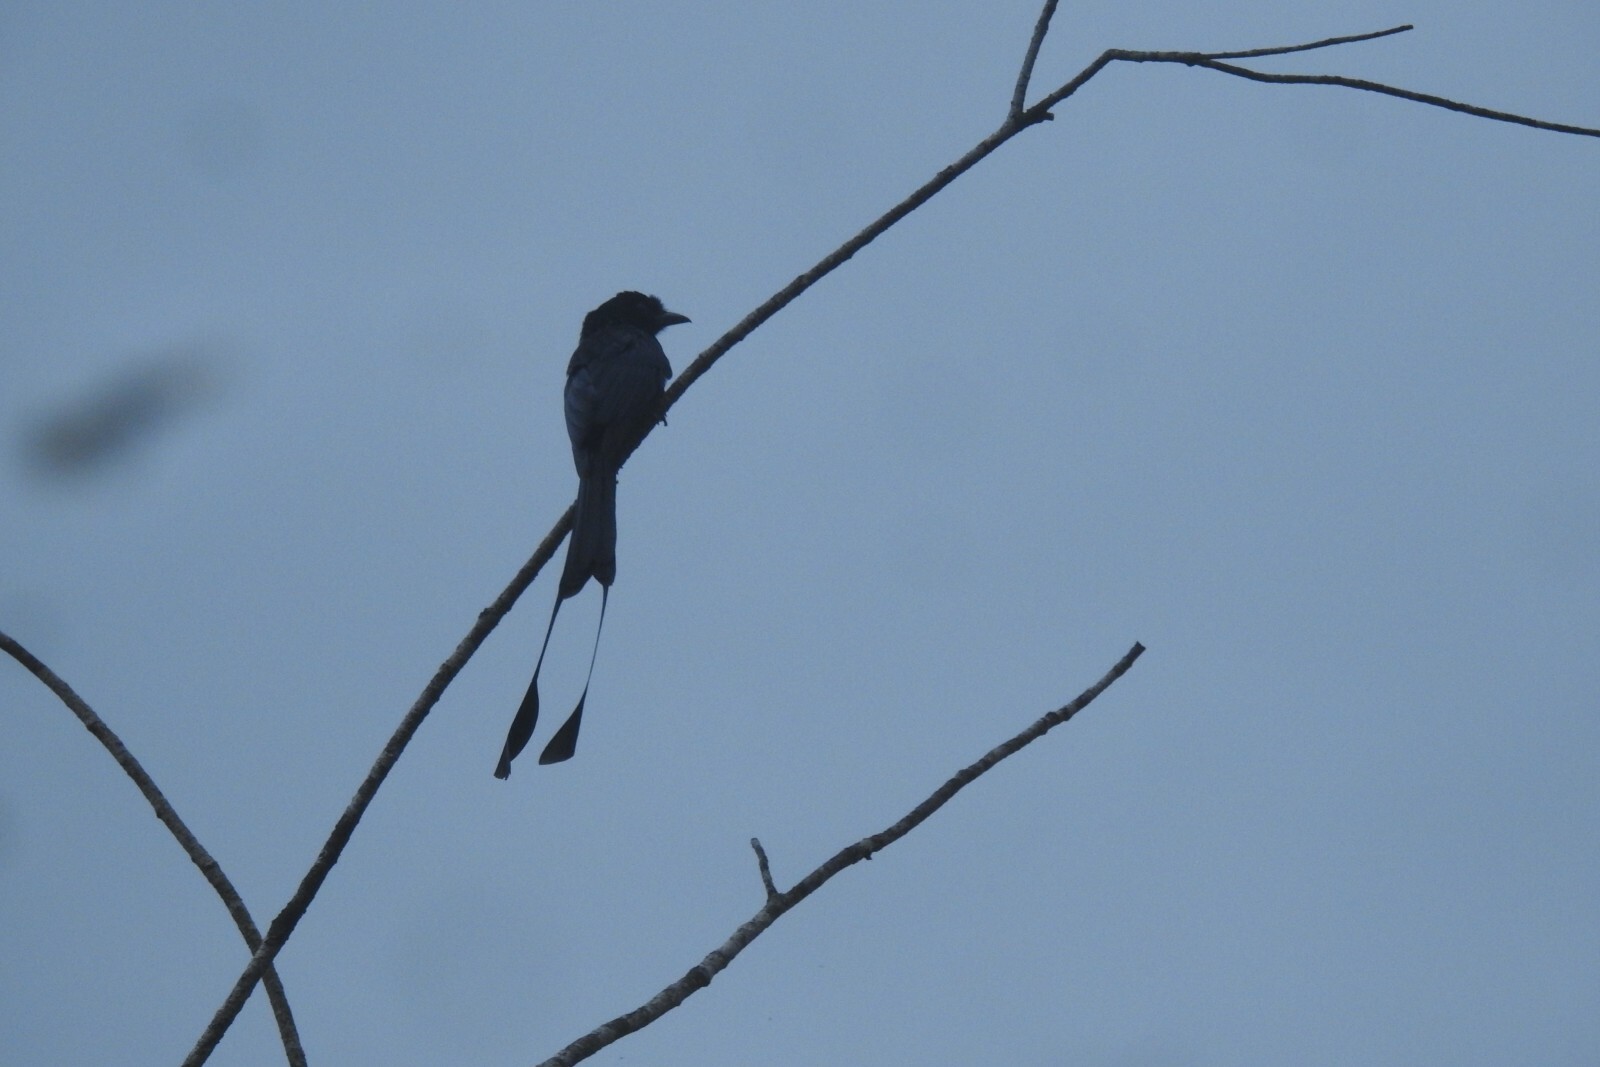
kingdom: Animalia
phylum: Chordata
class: Aves
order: Passeriformes
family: Dicruridae
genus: Dicrurus
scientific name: Dicrurus paradiseus
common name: Greater racket-tailed drongo
